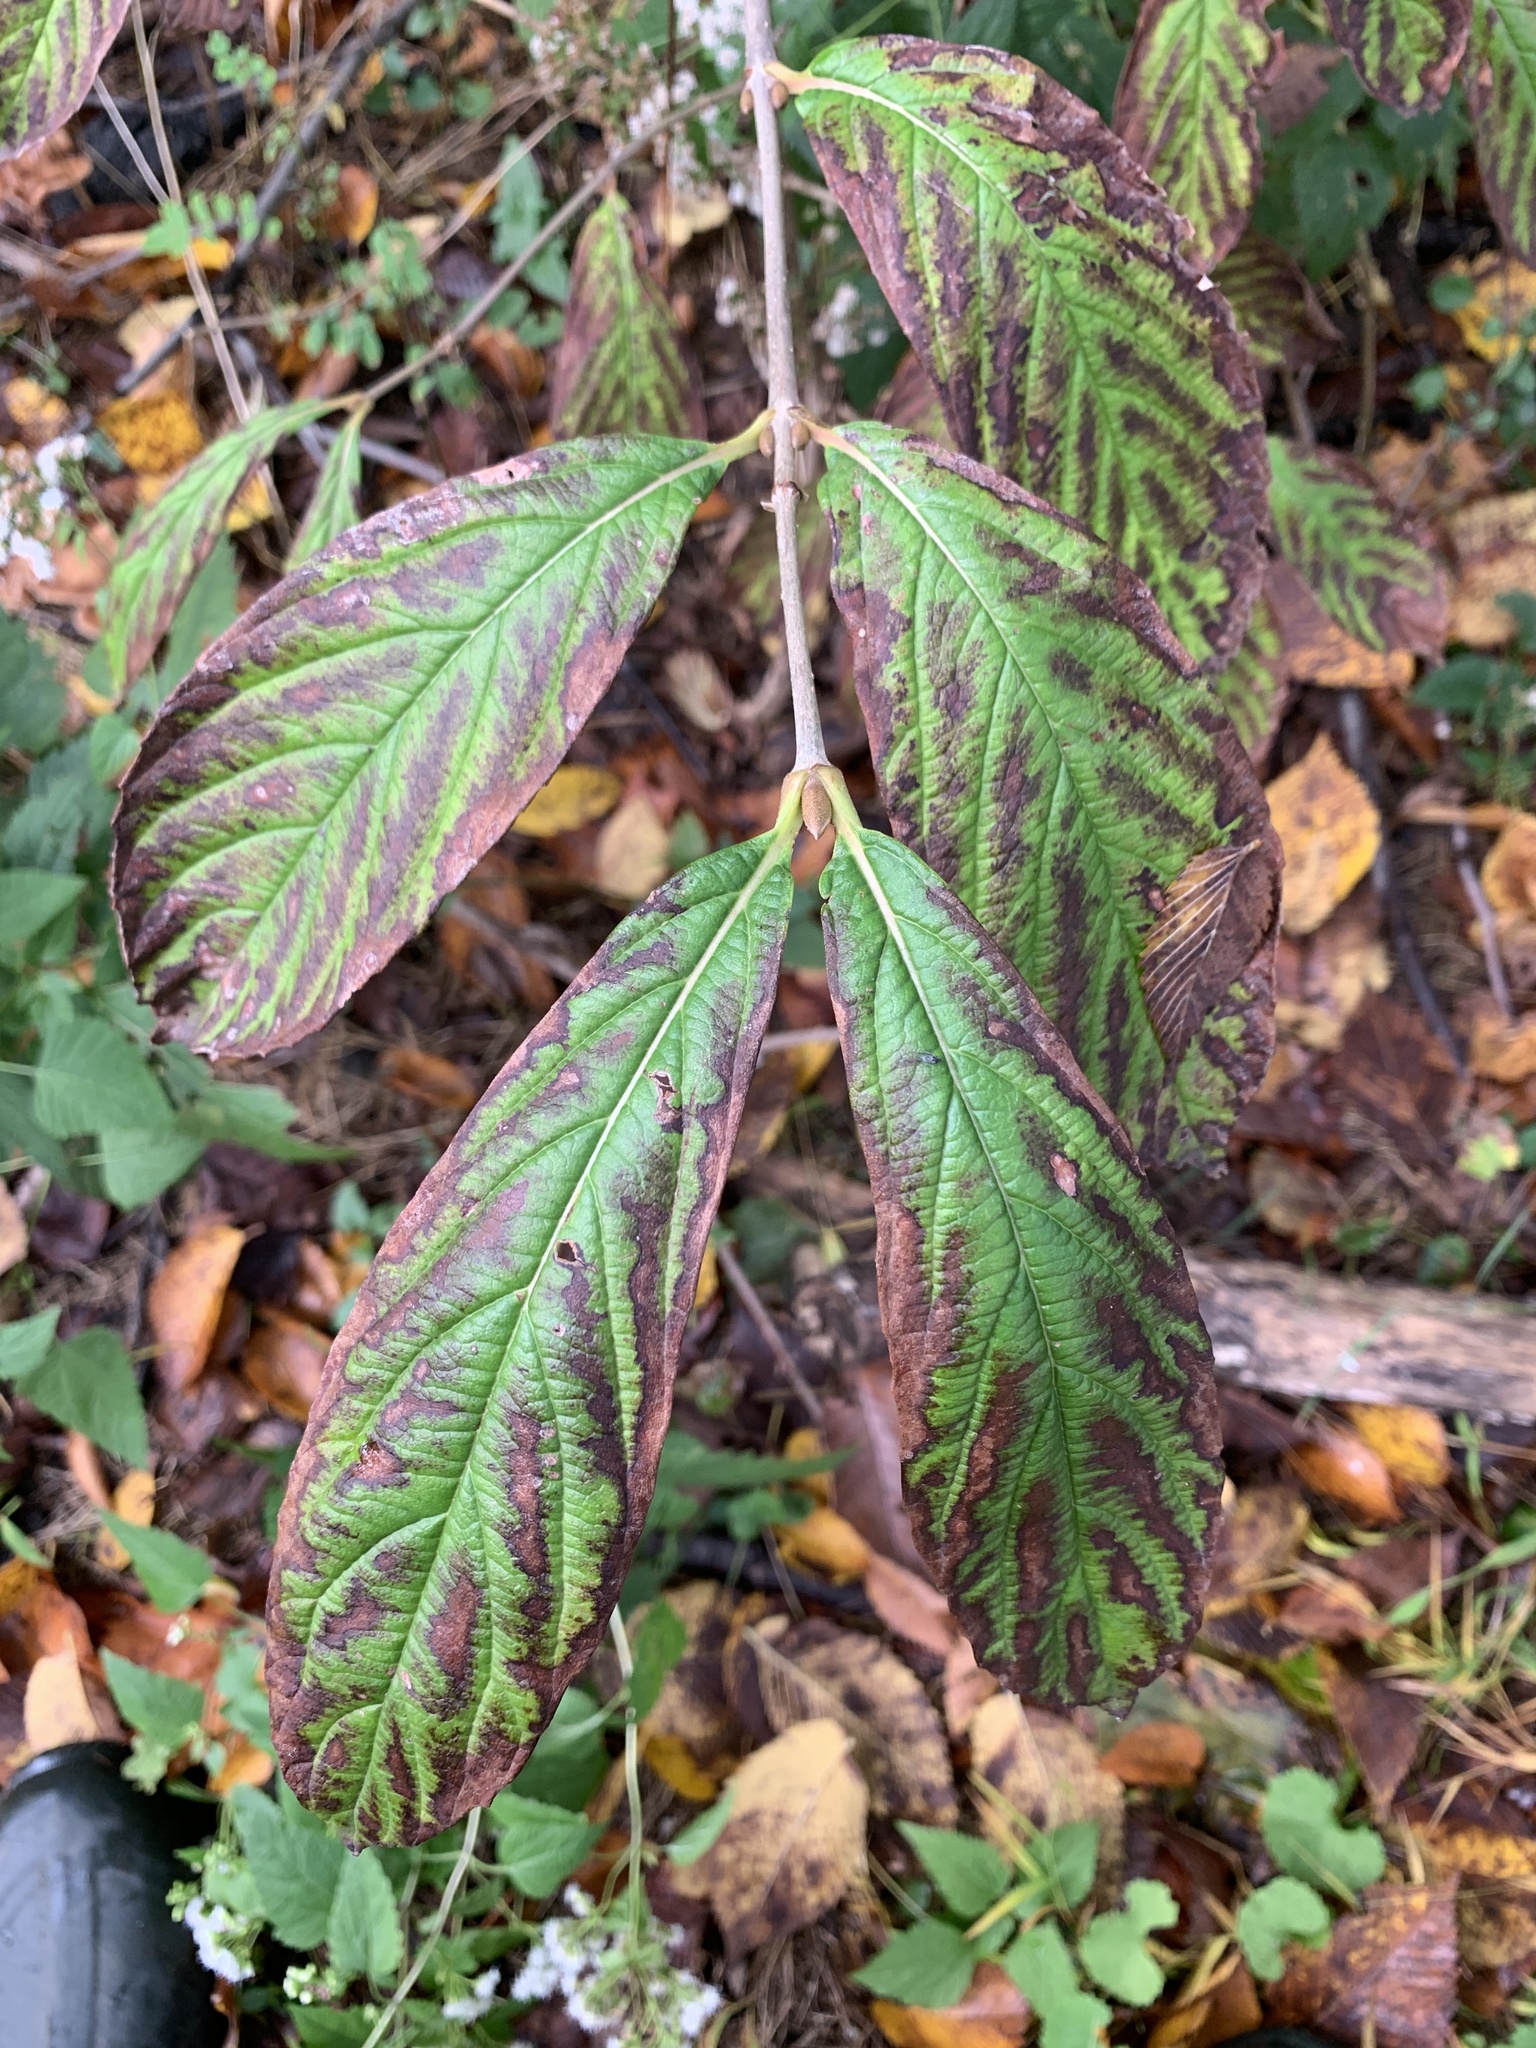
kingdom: Plantae
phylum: Tracheophyta
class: Magnoliopsida
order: Dipsacales
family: Viburnaceae
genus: Viburnum
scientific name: Viburnum sieboldii
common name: Siebold's arrowwood
